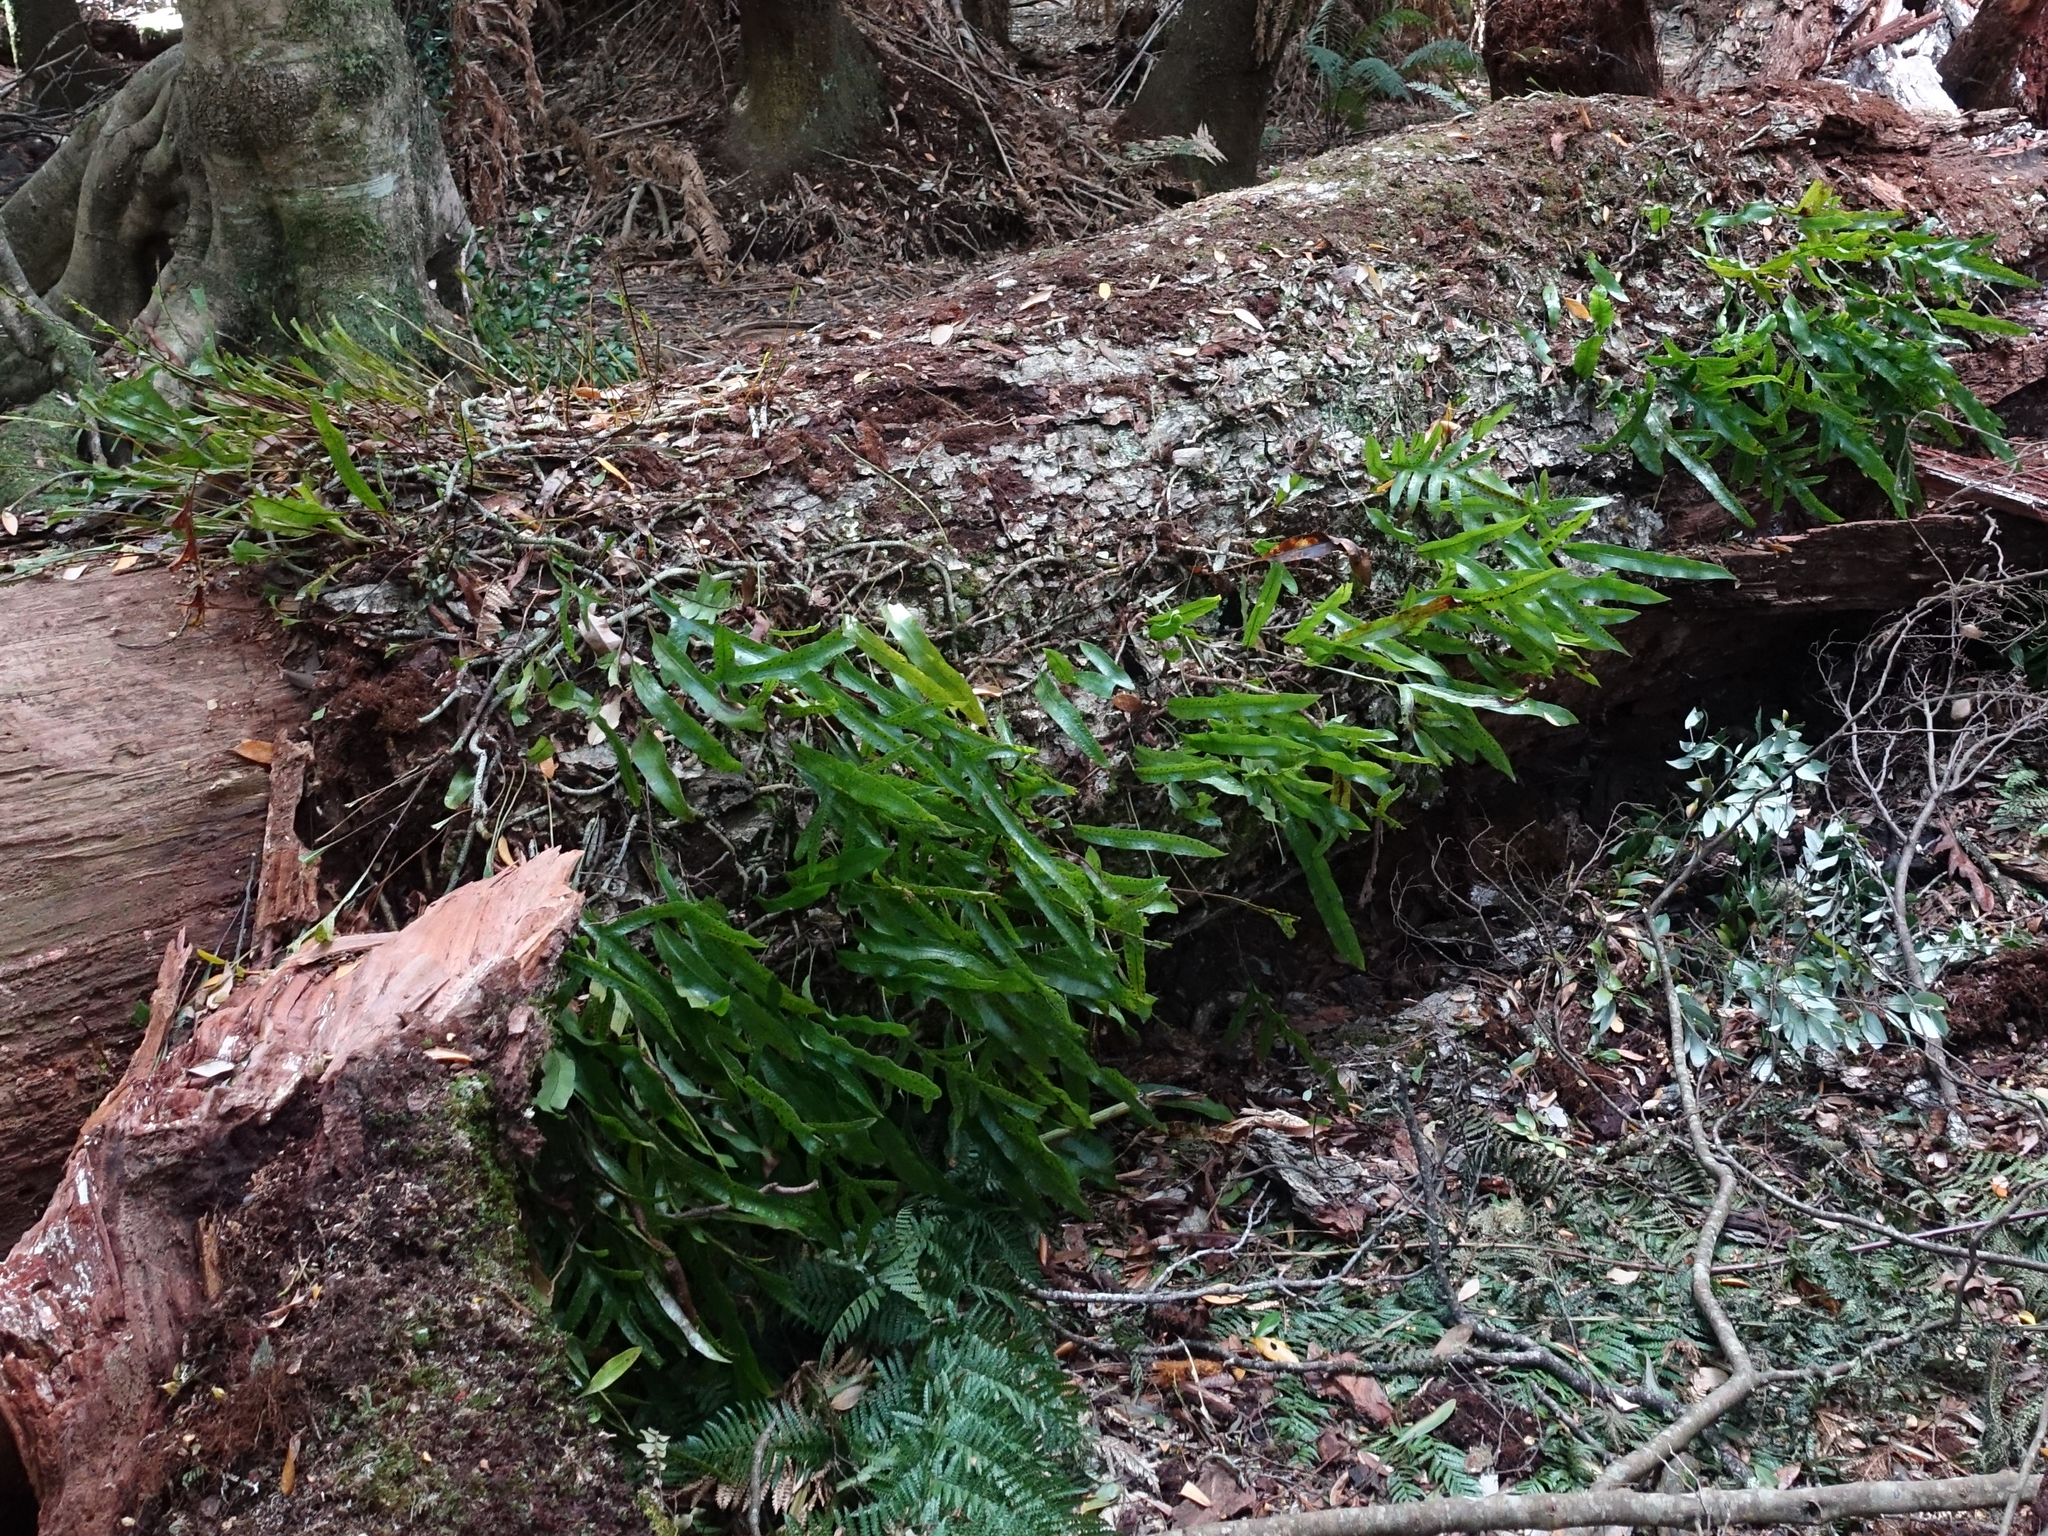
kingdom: Plantae
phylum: Tracheophyta
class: Polypodiopsida
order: Polypodiales
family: Polypodiaceae
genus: Lecanopteris
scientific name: Lecanopteris pustulata
